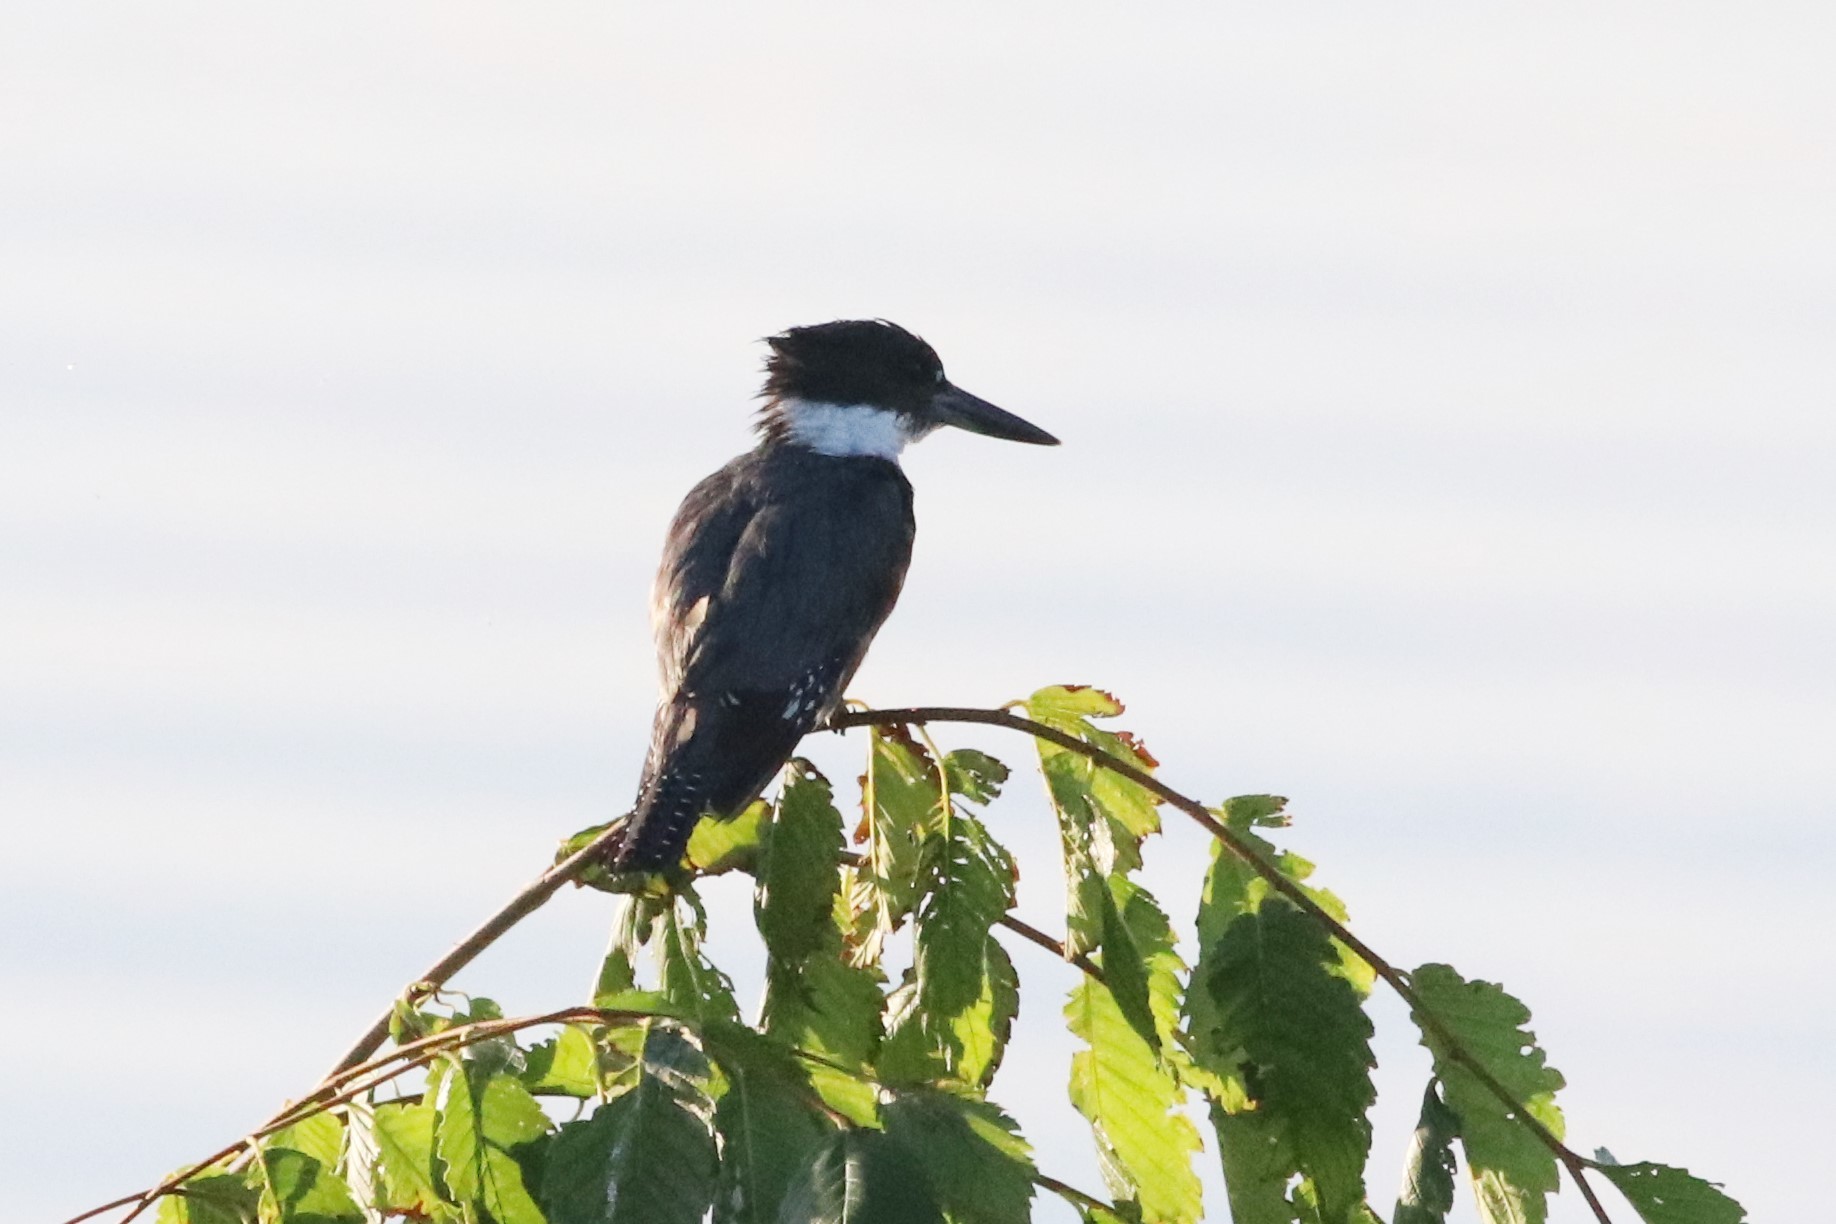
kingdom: Animalia
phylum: Chordata
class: Aves
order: Coraciiformes
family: Alcedinidae
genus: Megaceryle
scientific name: Megaceryle alcyon
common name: Belted kingfisher
